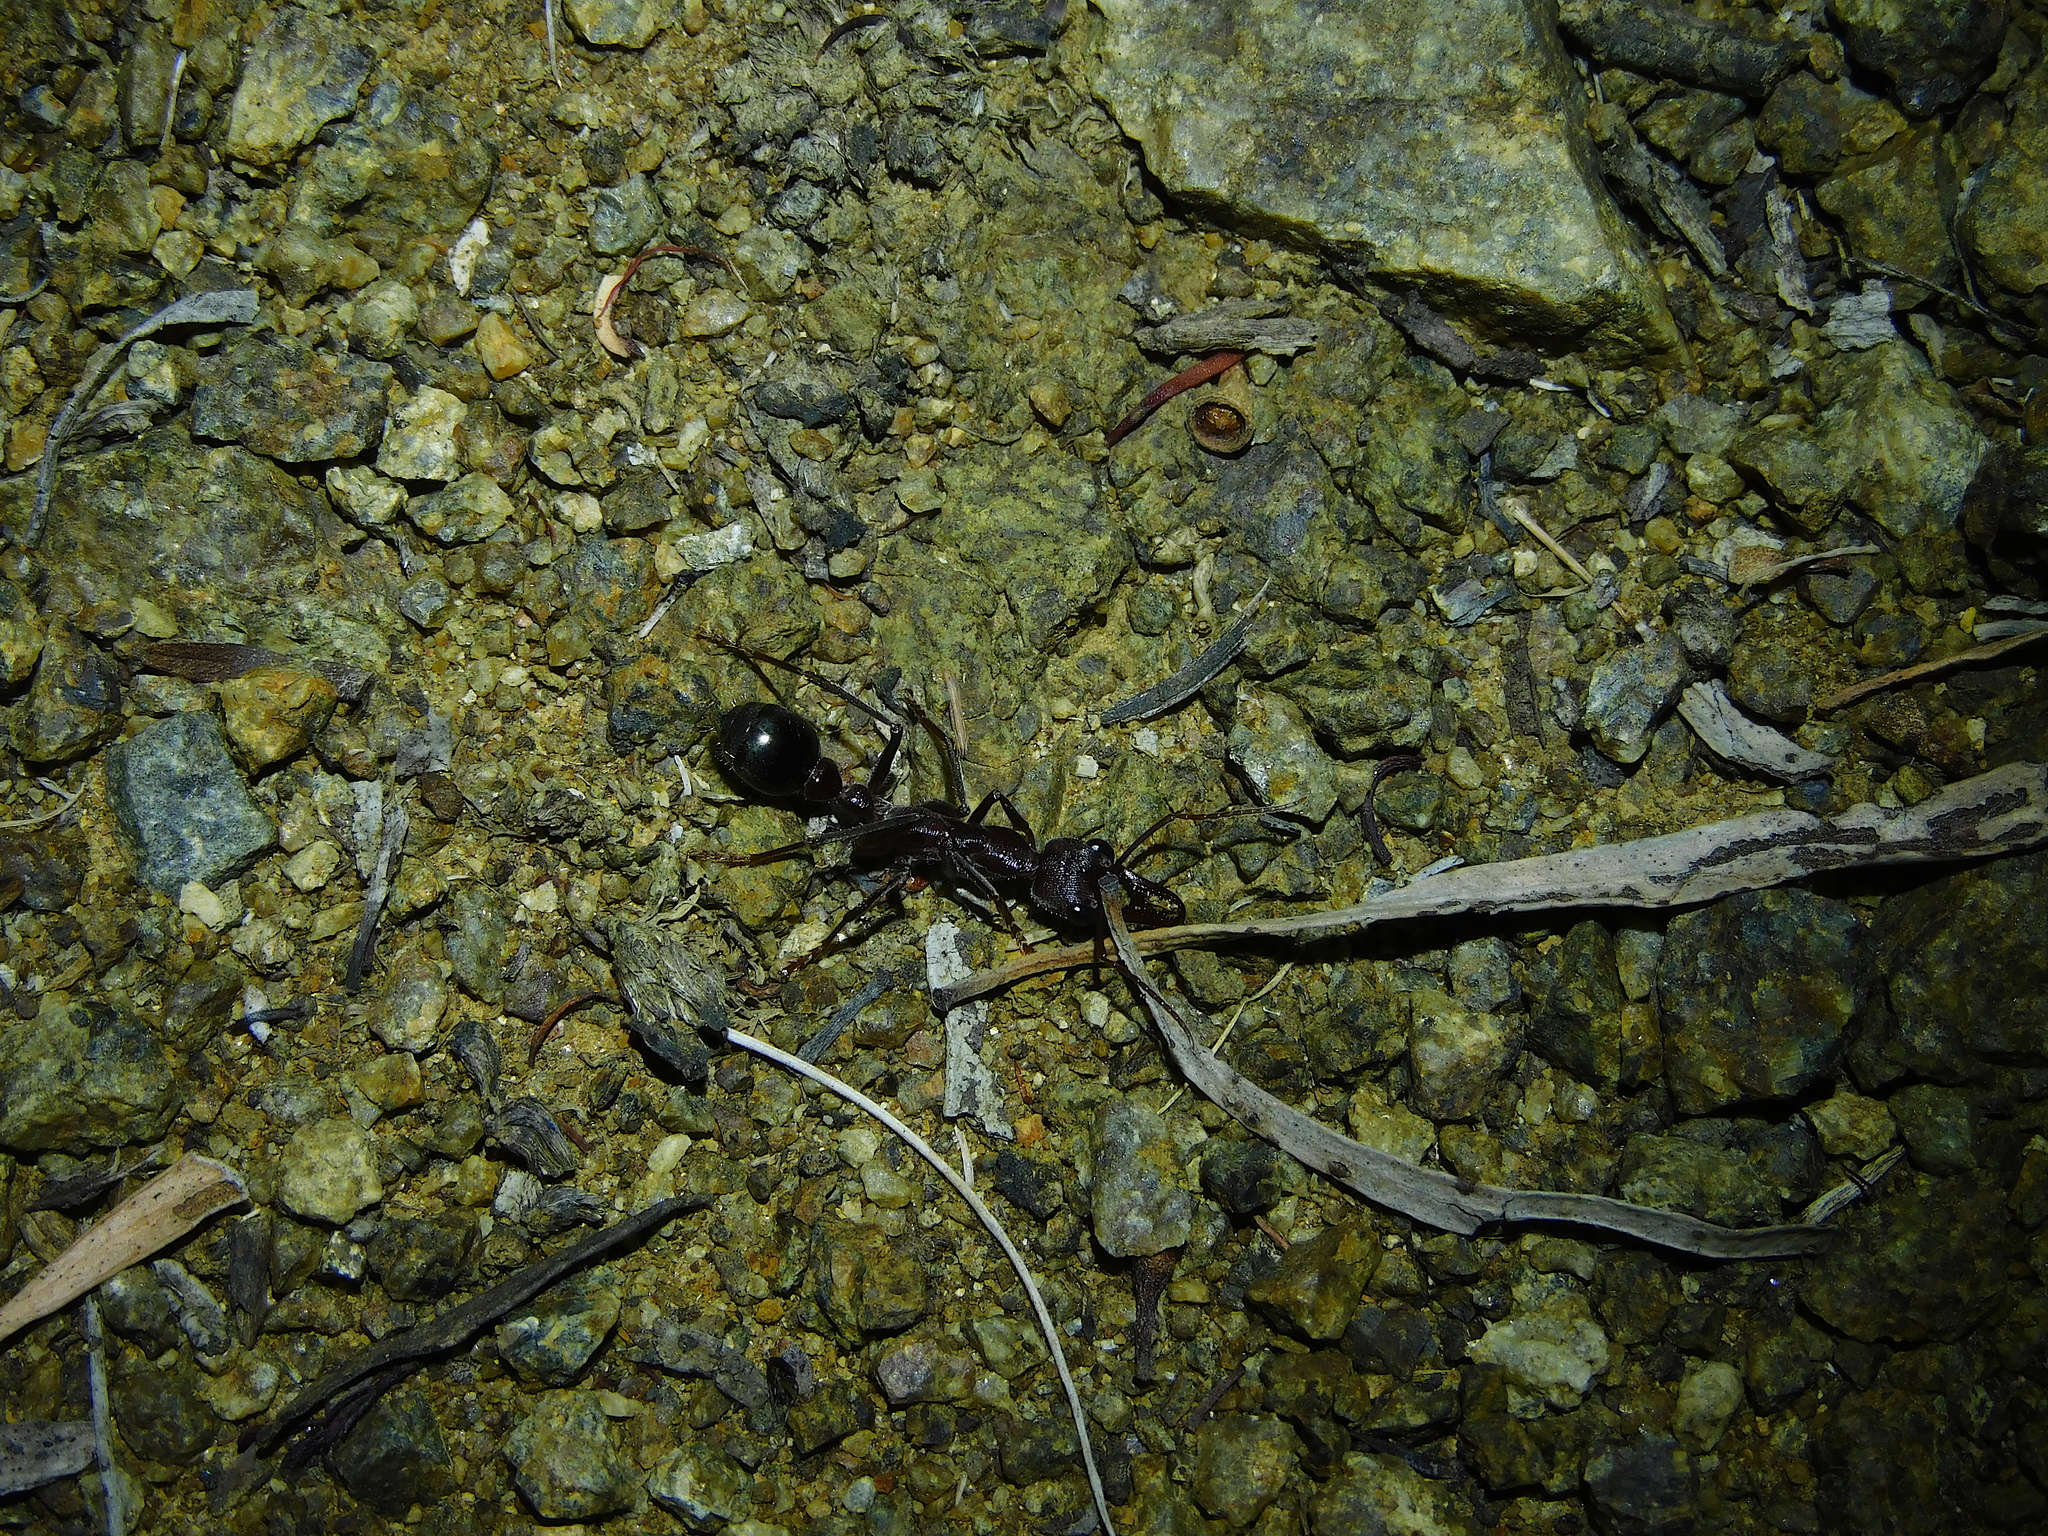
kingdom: Animalia
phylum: Arthropoda
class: Insecta
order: Hymenoptera
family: Formicidae
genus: Myrmecia
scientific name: Myrmecia forficata
